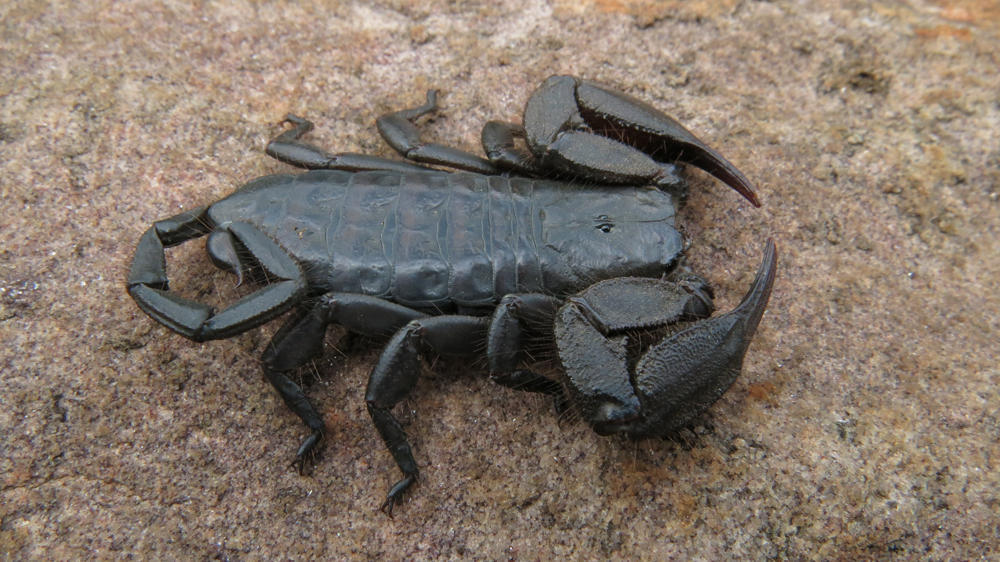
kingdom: Animalia
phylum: Arthropoda
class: Arachnida
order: Scorpiones
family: Hormuridae
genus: Hadogenes
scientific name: Hadogenes gunningi
